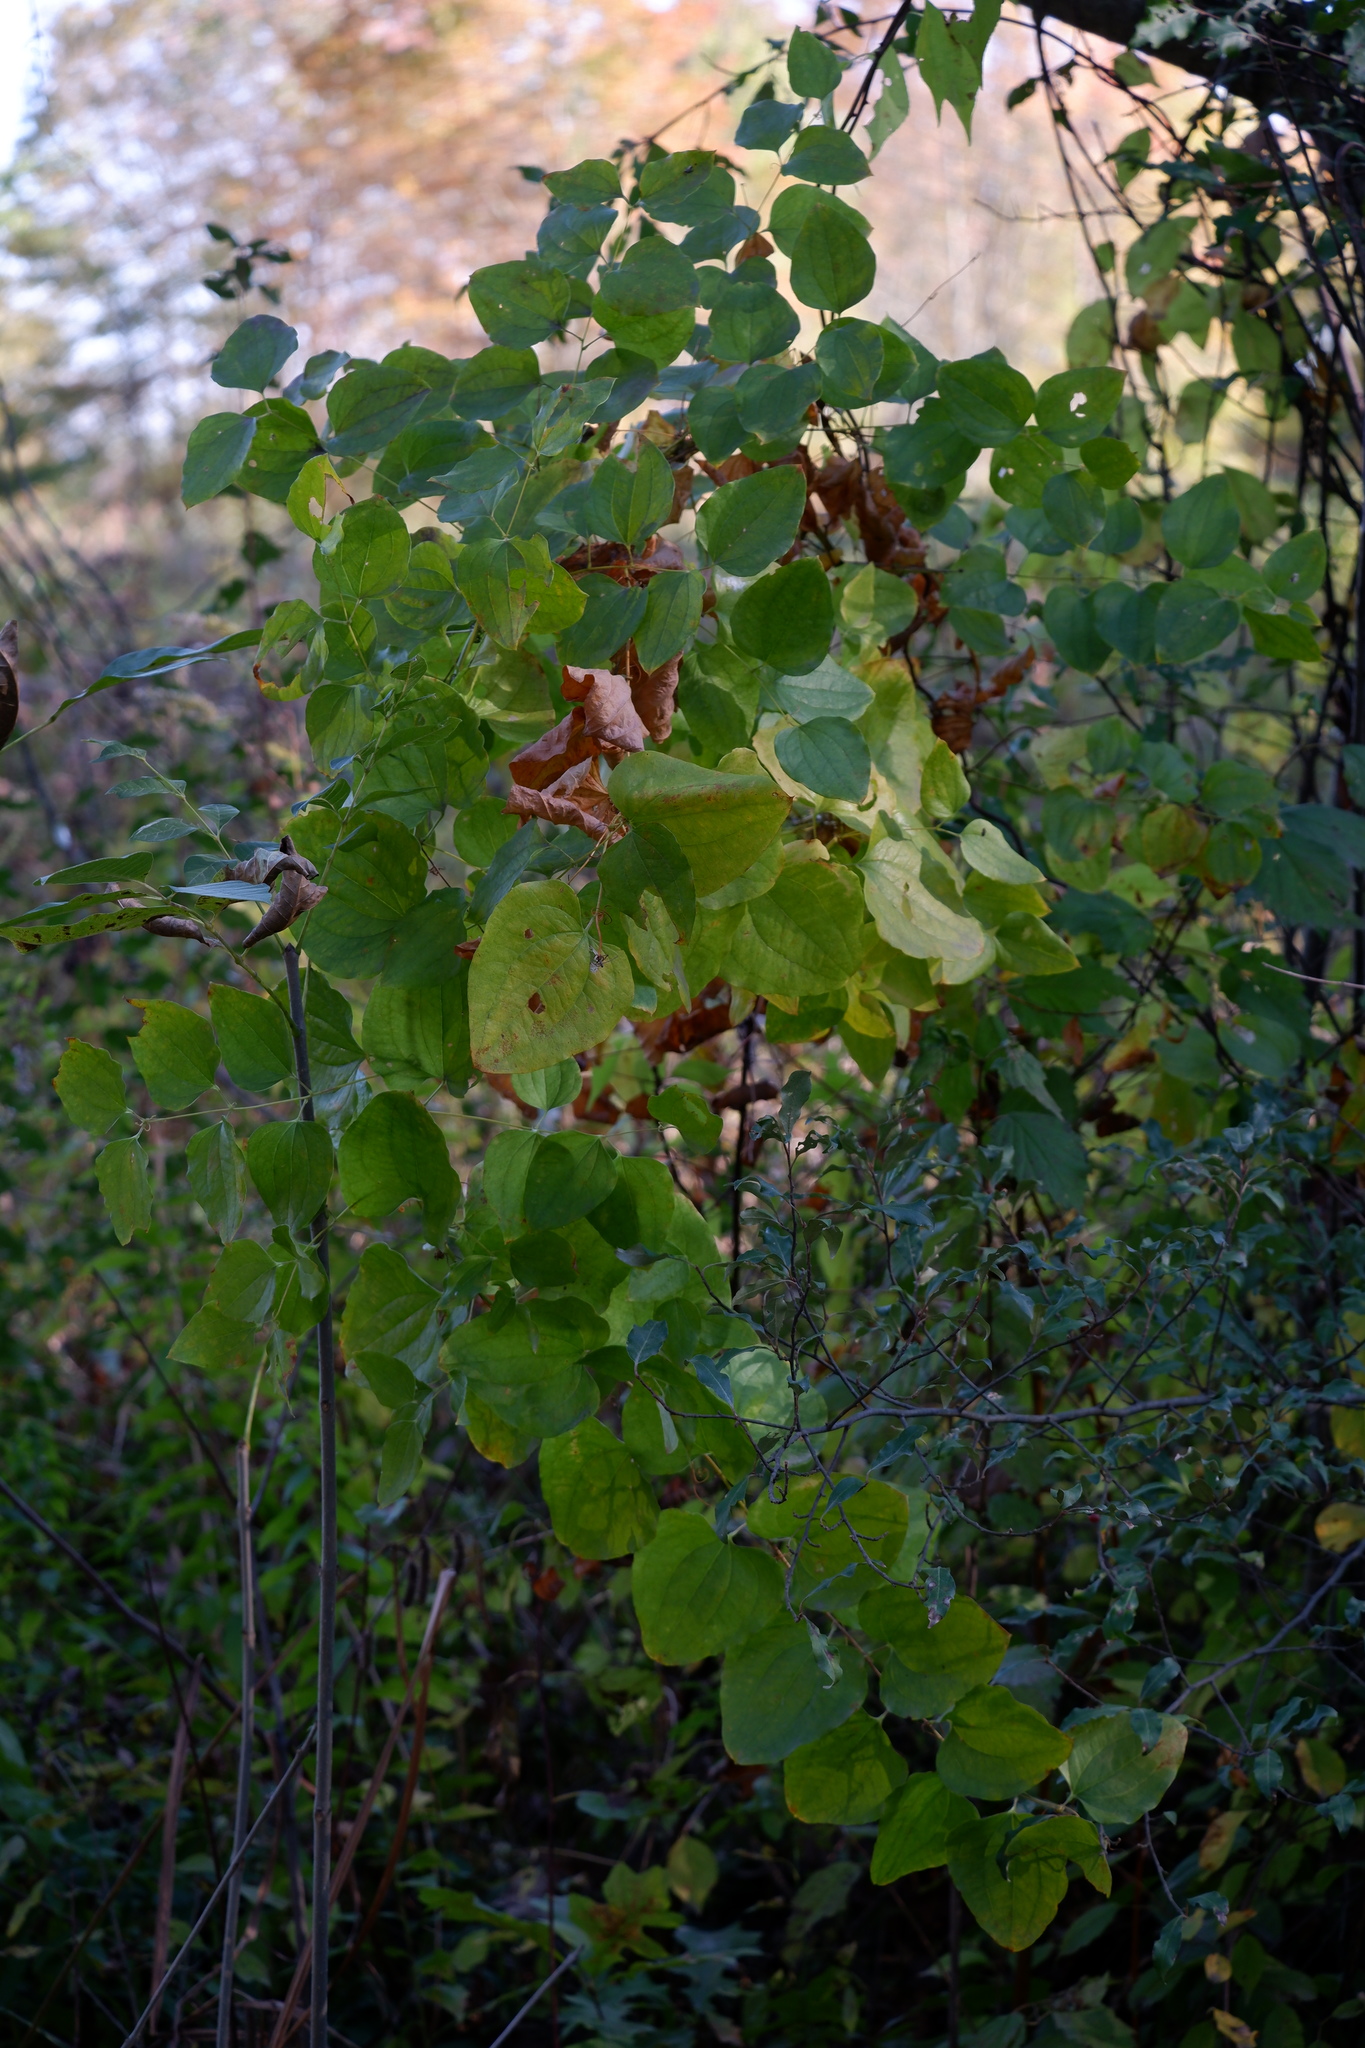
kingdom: Plantae
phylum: Tracheophyta
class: Liliopsida
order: Liliales
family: Smilacaceae
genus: Smilax
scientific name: Smilax herbacea
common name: Jacob's-ladder
